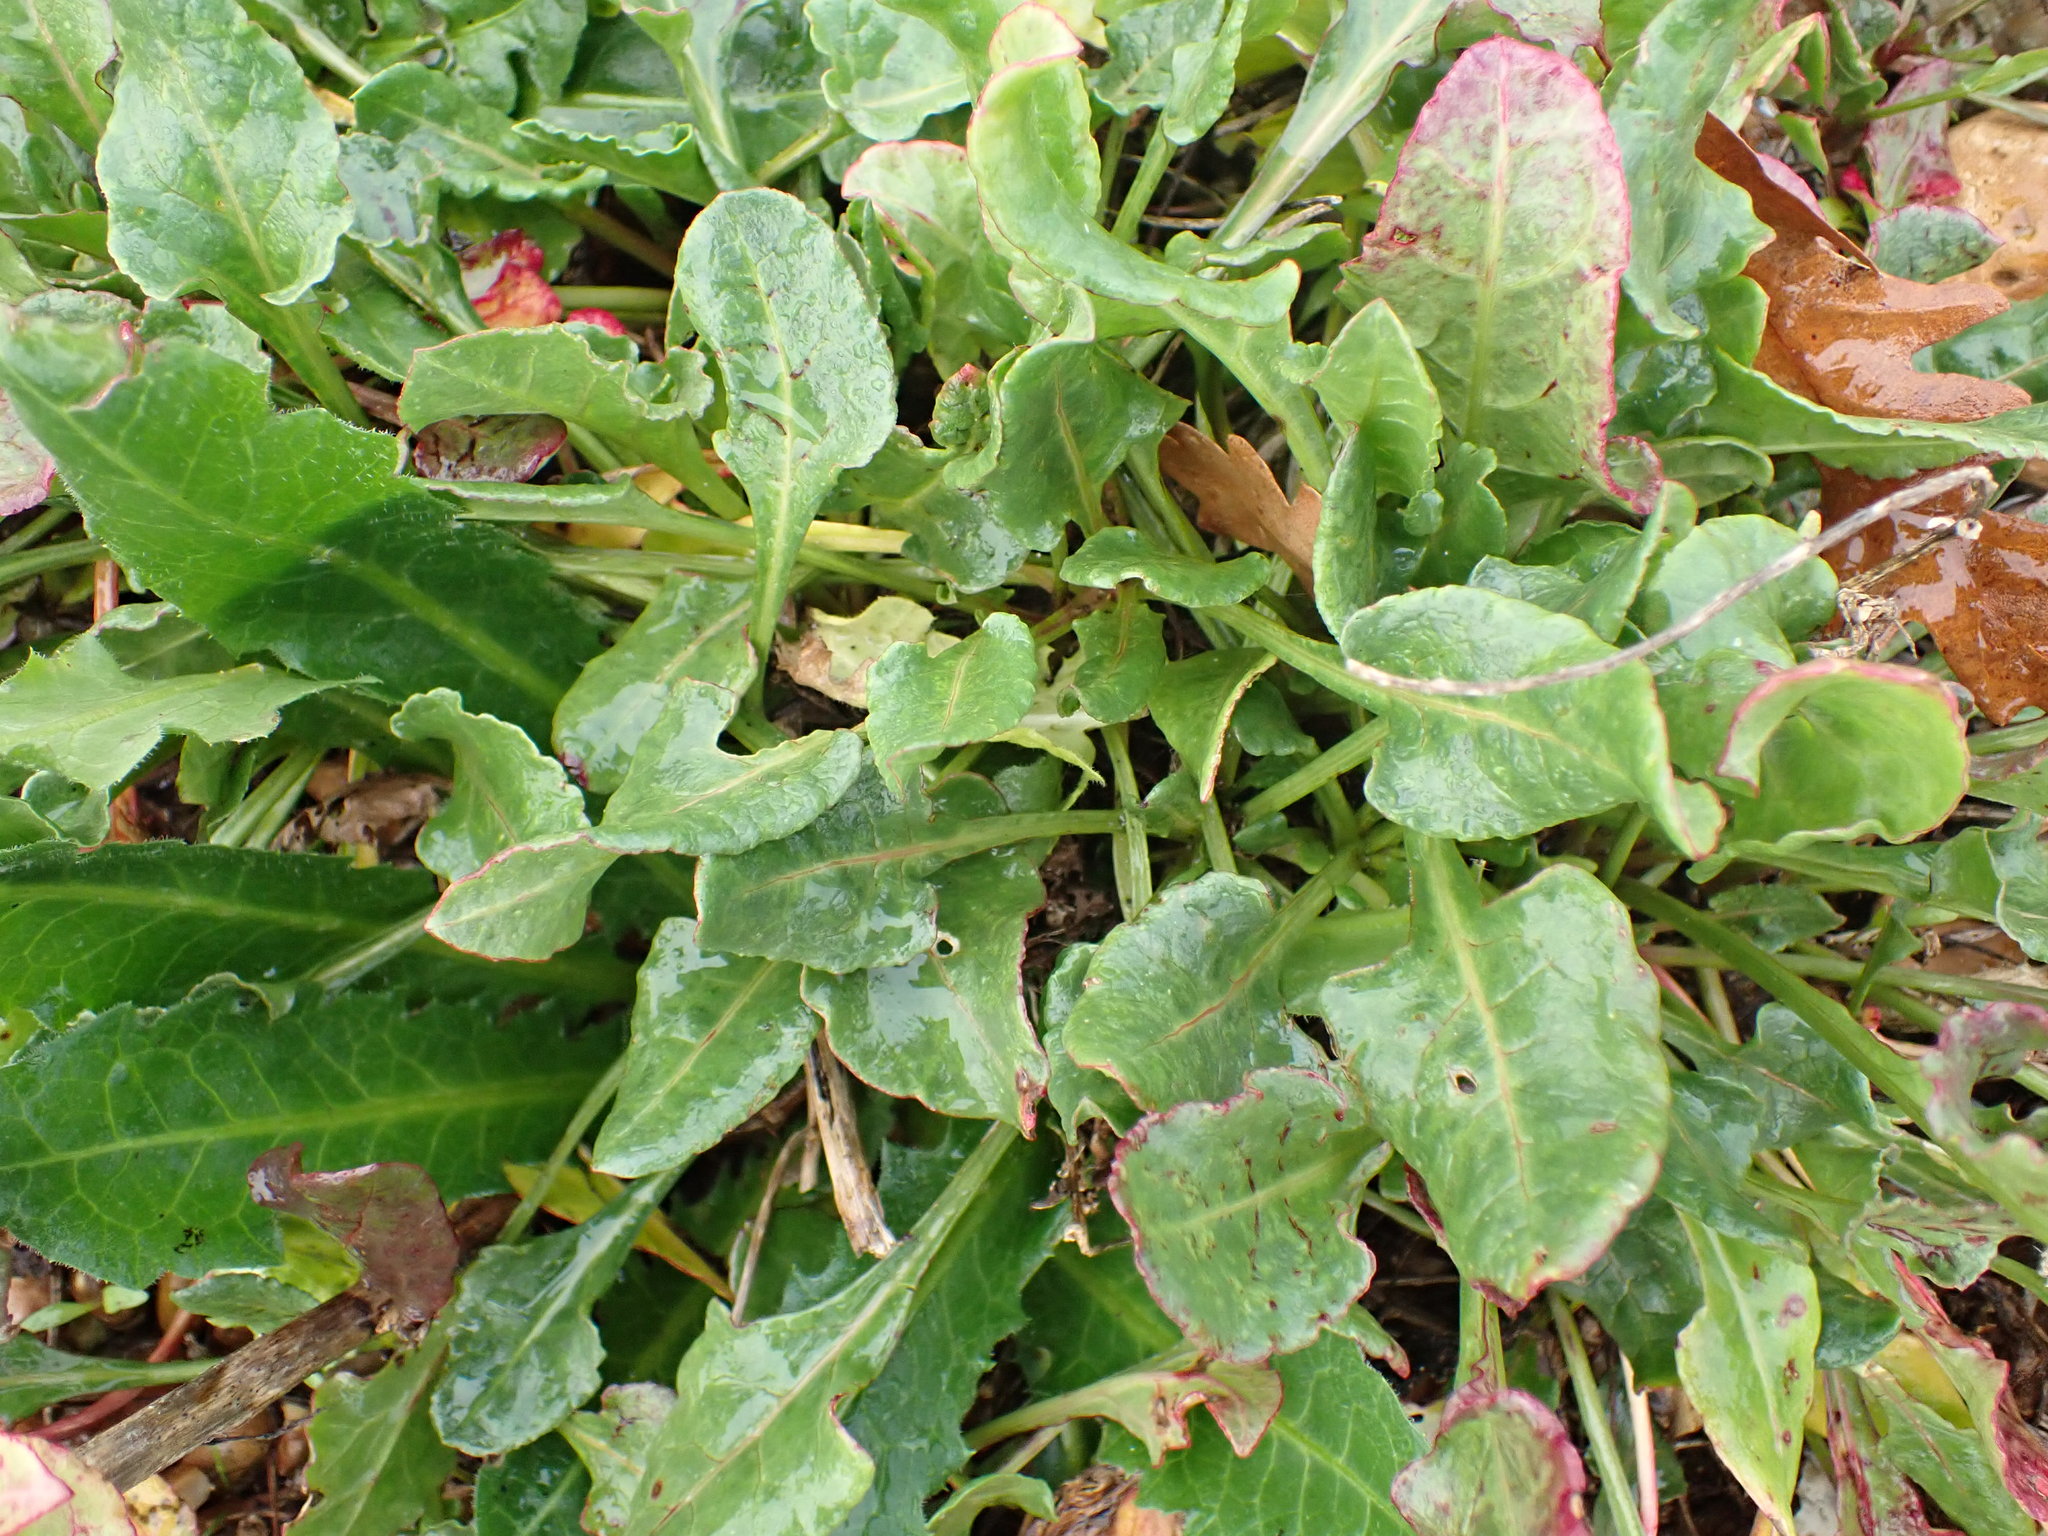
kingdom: Plantae
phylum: Tracheophyta
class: Magnoliopsida
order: Caryophyllales
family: Amaranthaceae
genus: Beta
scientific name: Beta vulgaris
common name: Beet
